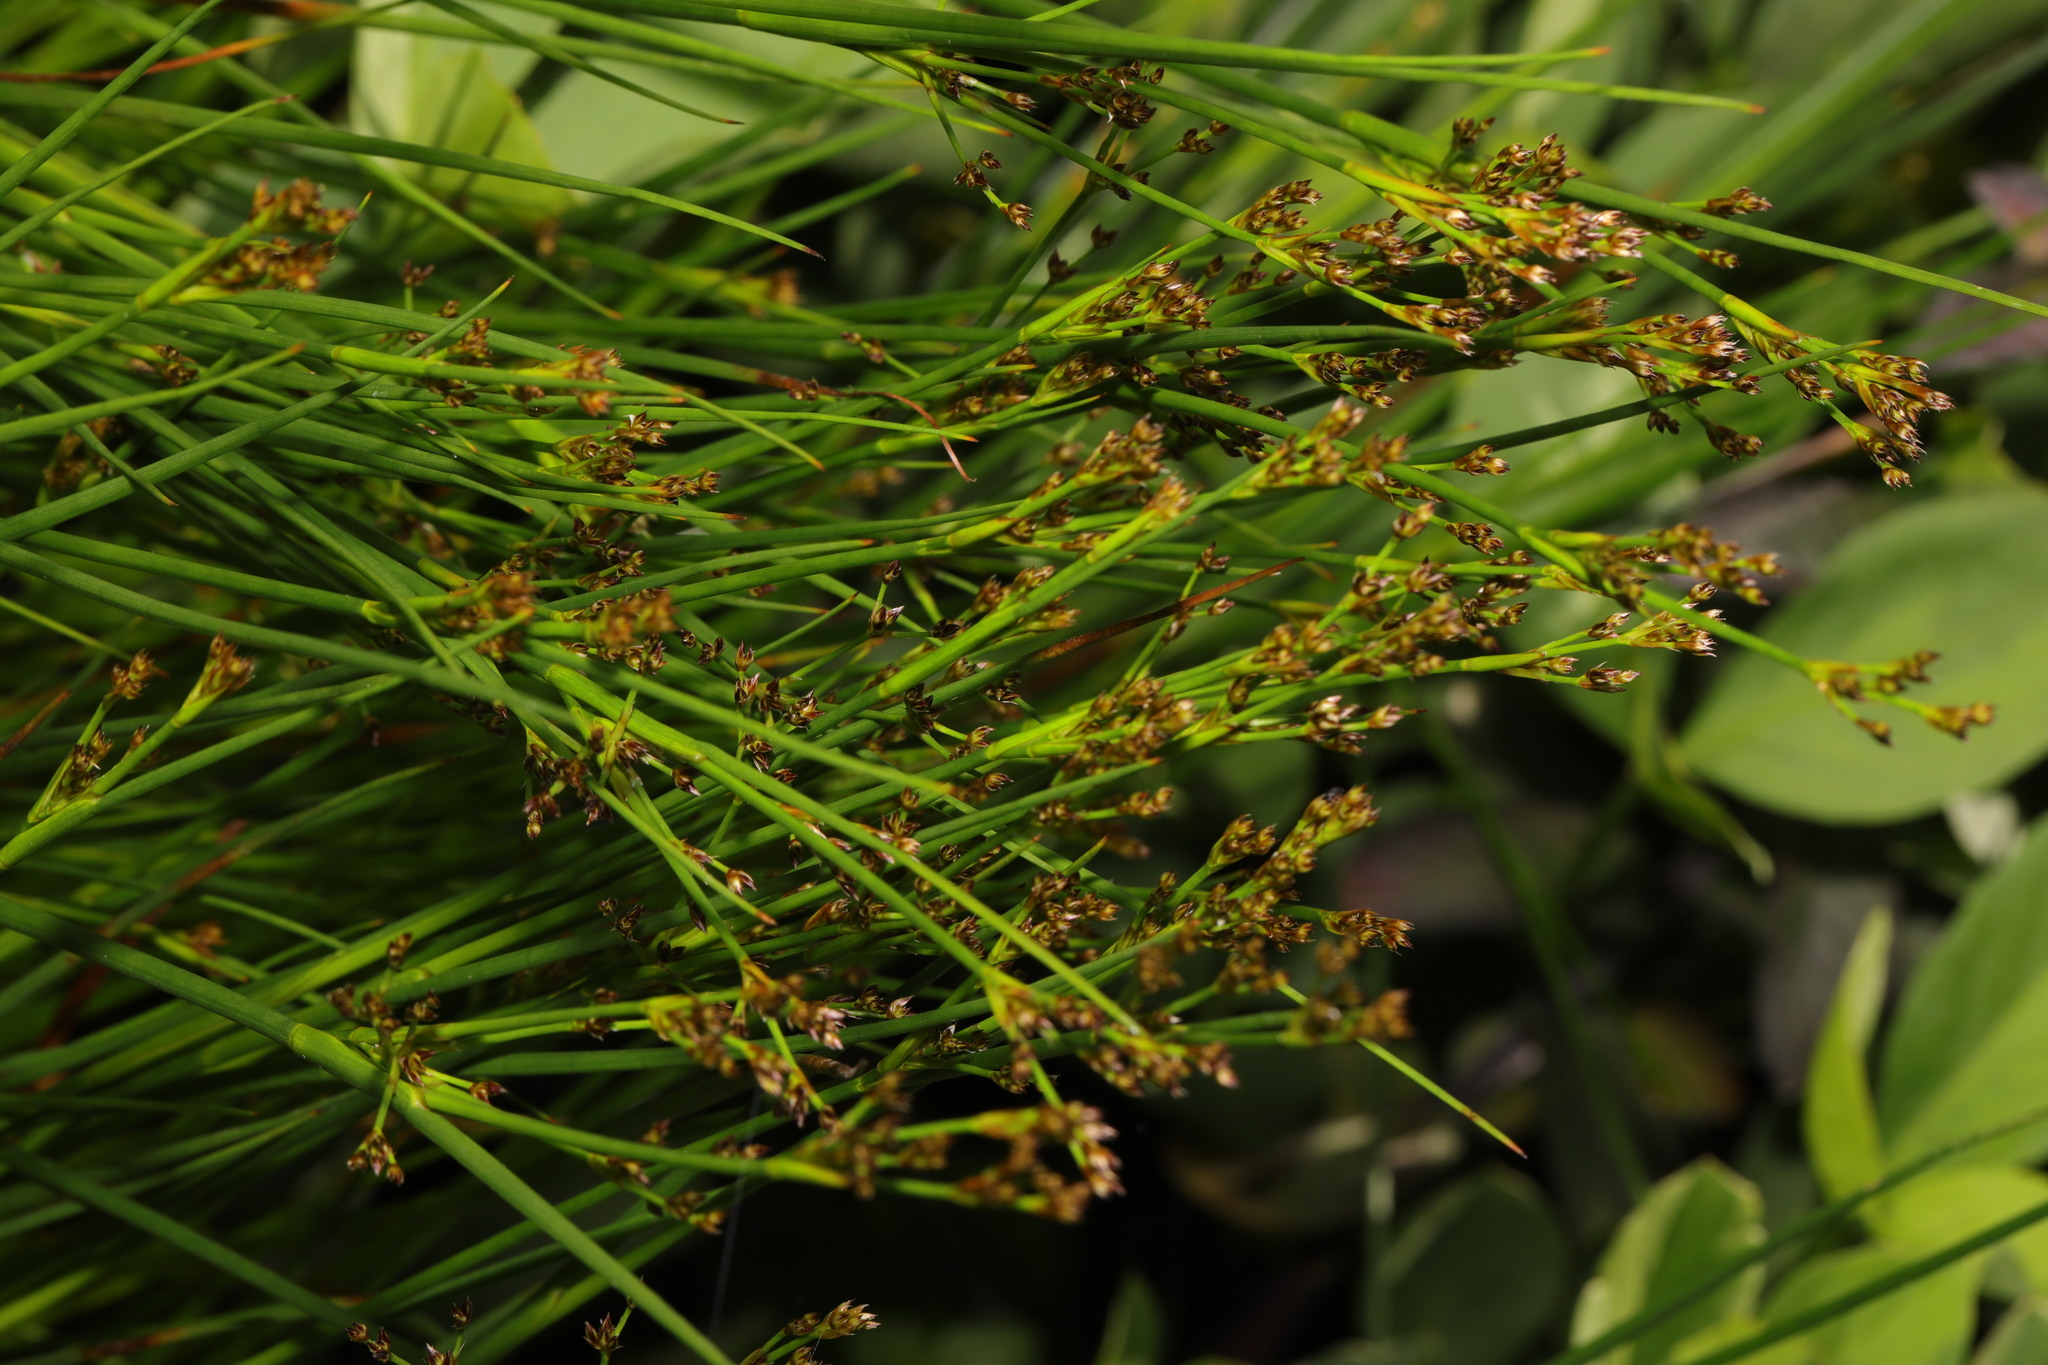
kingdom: Plantae
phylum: Tracheophyta
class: Liliopsida
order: Poales
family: Juncaceae
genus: Juncus
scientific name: Juncus articulatus
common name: Jointed rush
